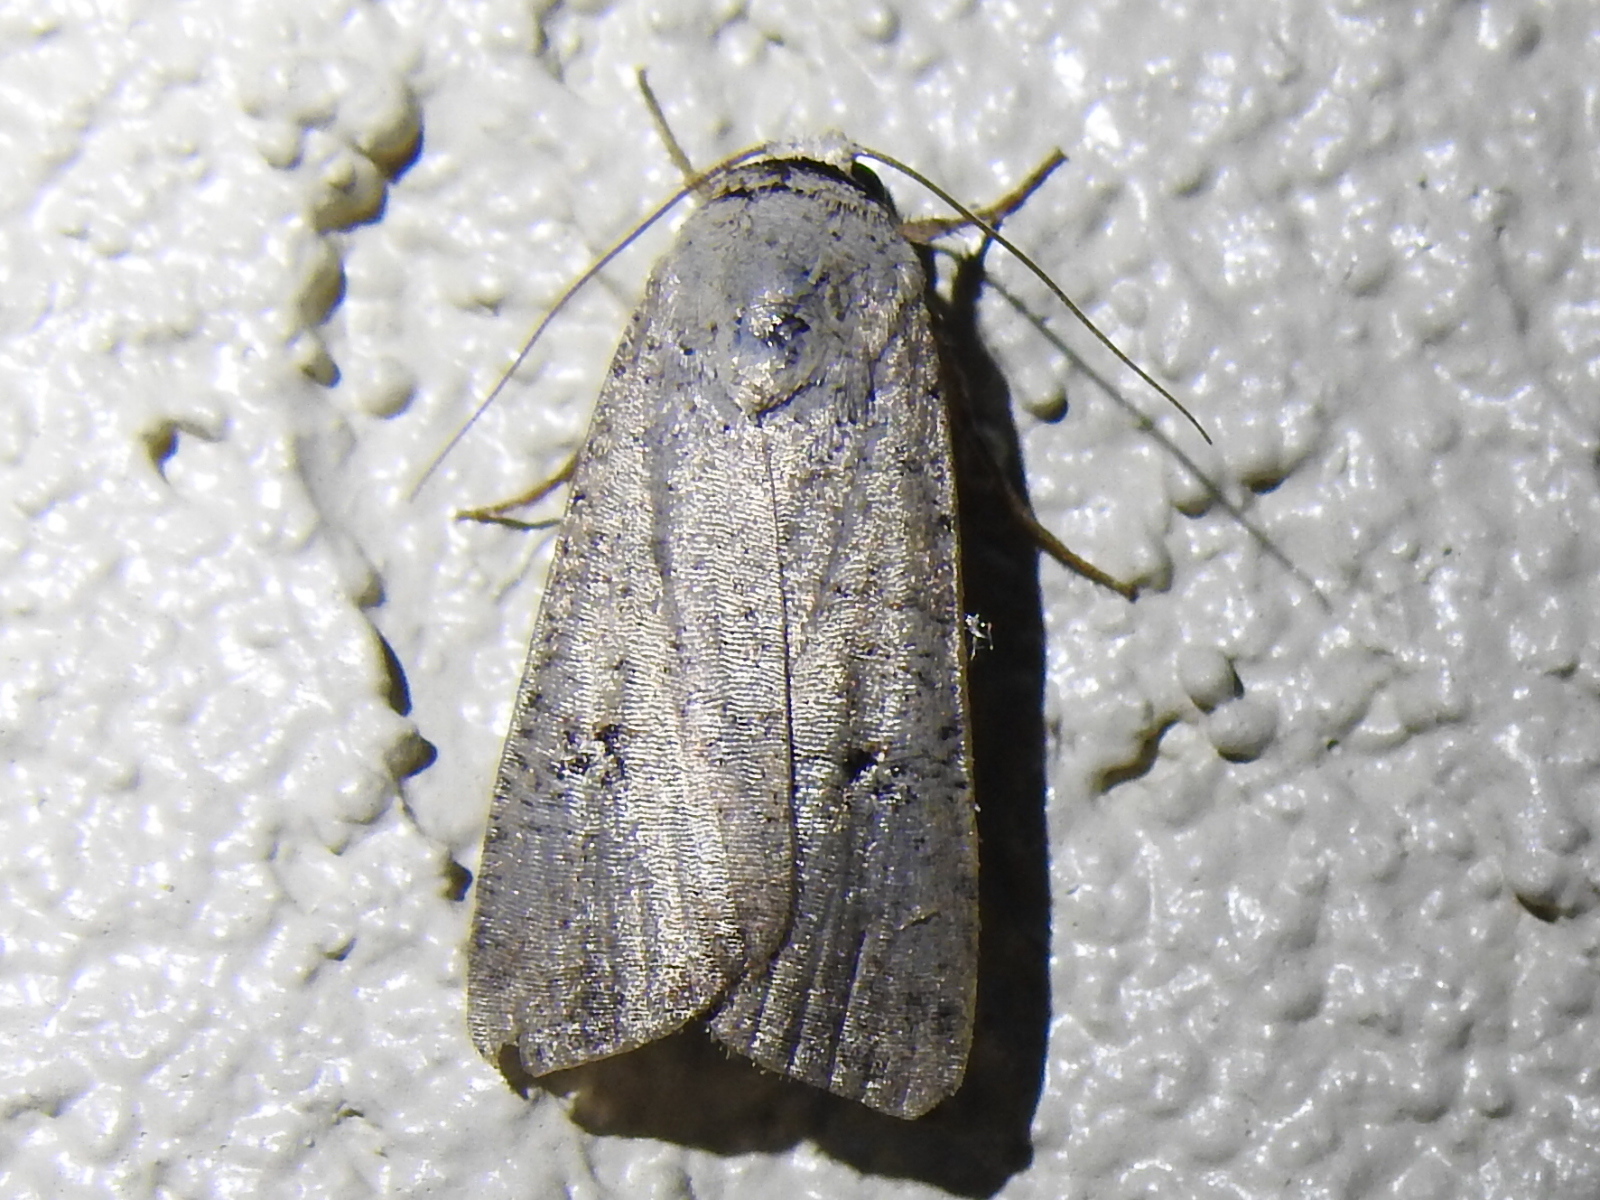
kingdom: Animalia
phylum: Arthropoda
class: Insecta
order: Lepidoptera
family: Noctuidae
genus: Anicla
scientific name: Anicla infecta
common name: Green cutworm
